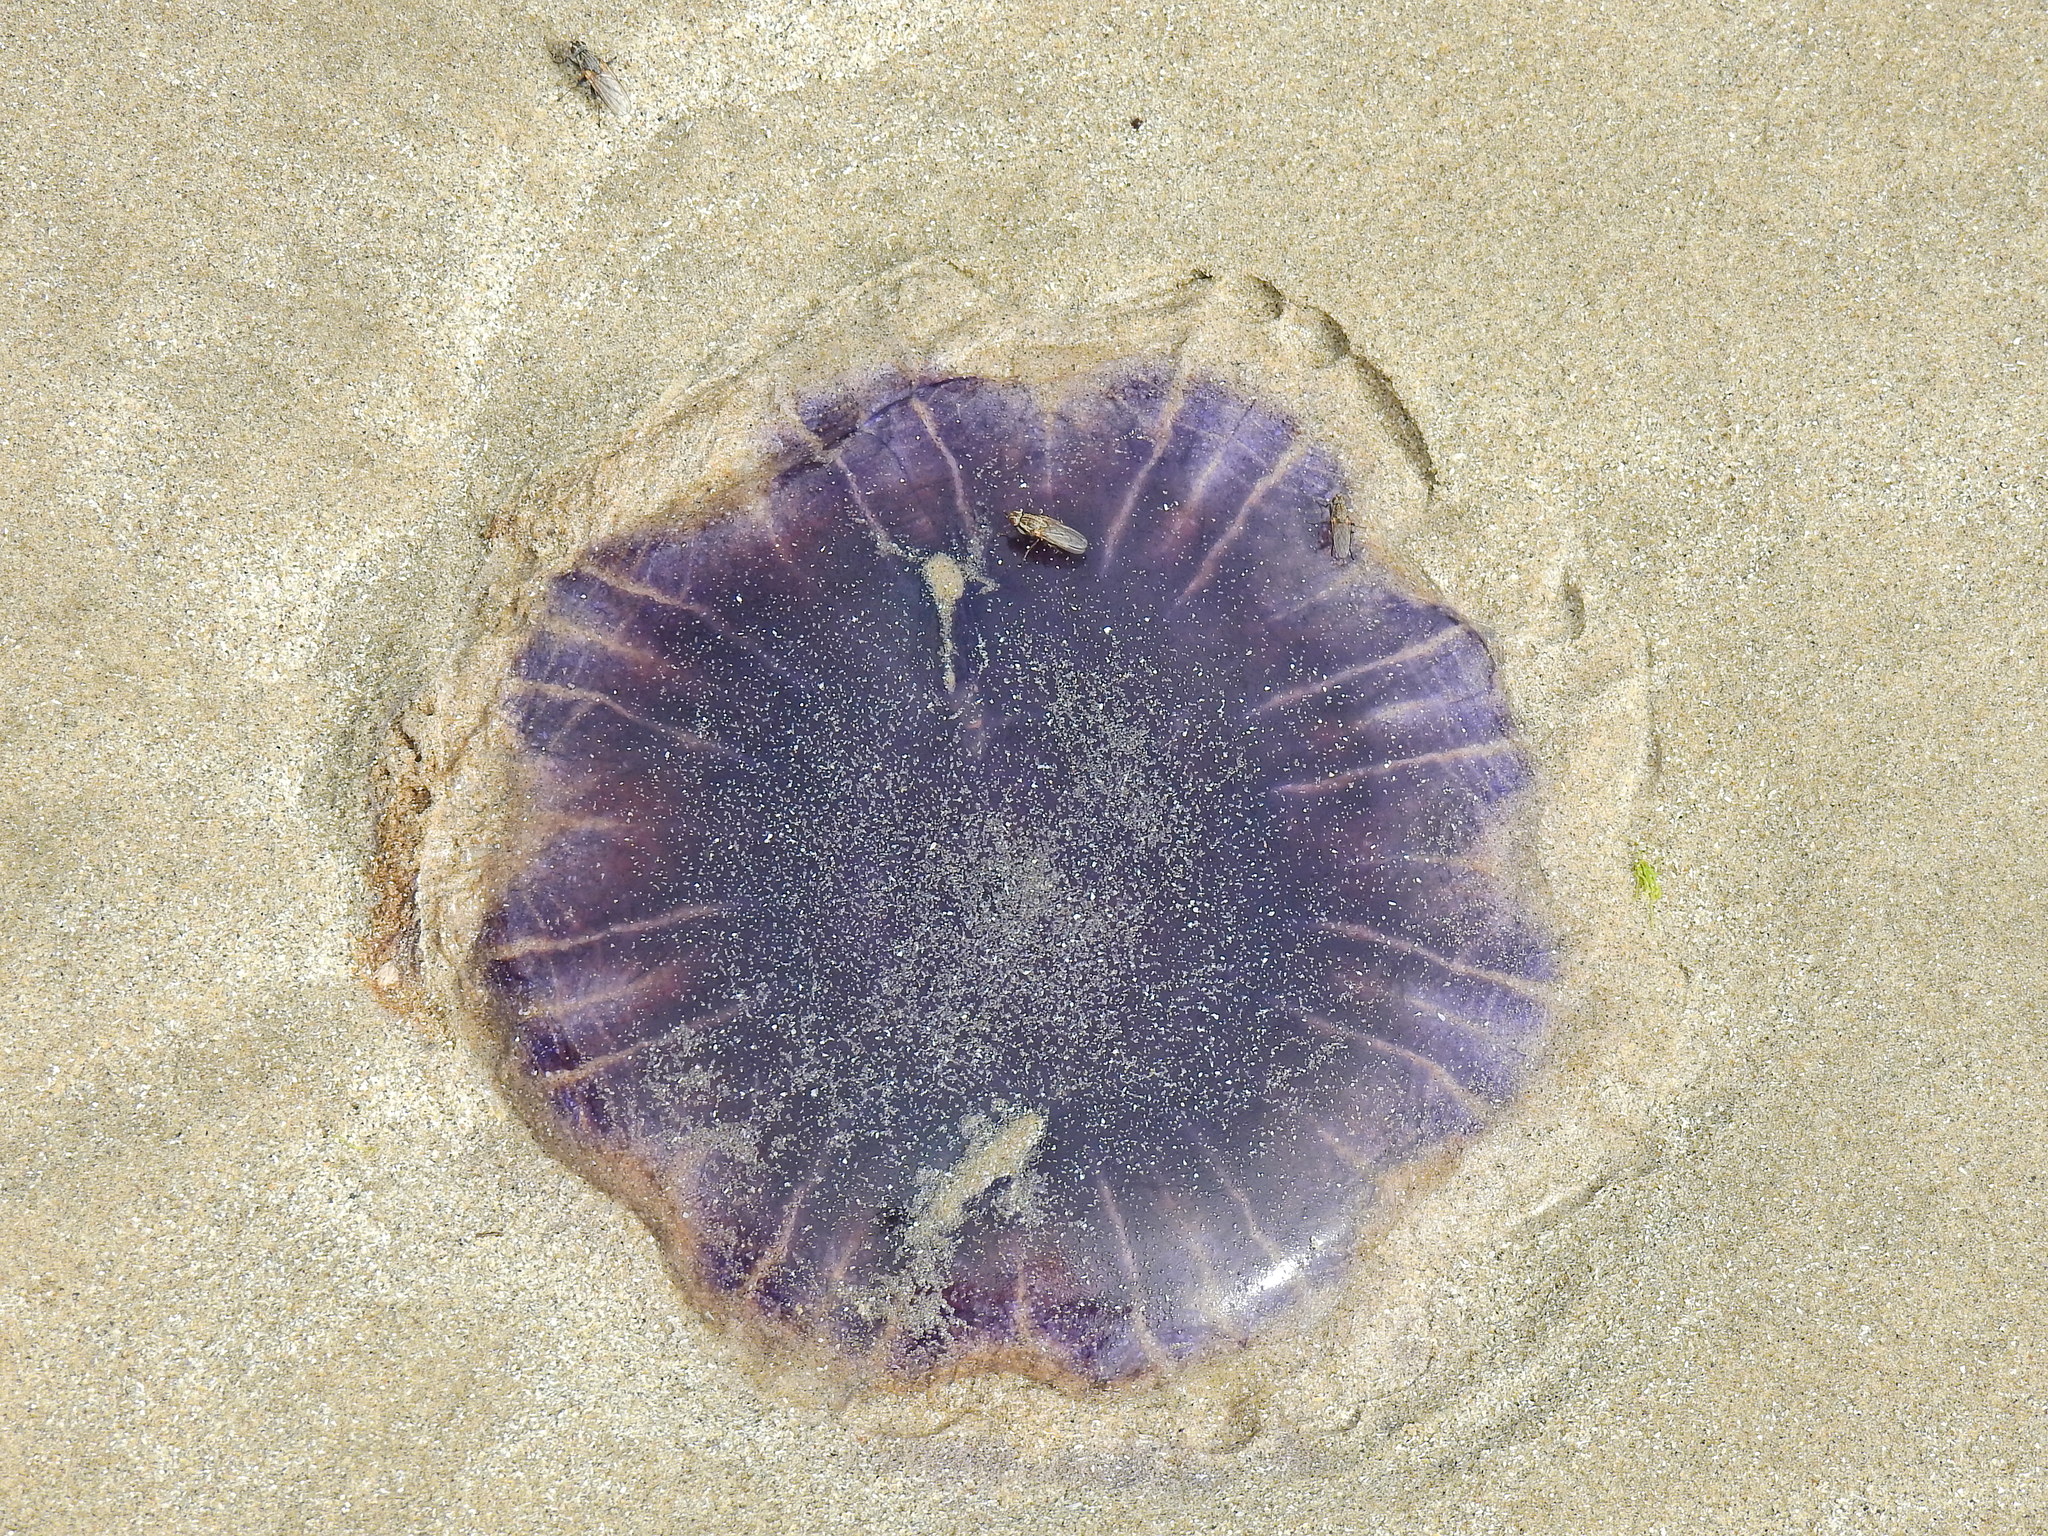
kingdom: Animalia
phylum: Cnidaria
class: Scyphozoa
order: Semaeostomeae
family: Cyaneidae
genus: Cyanea
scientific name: Cyanea lamarckii
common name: Blue jellyfish
